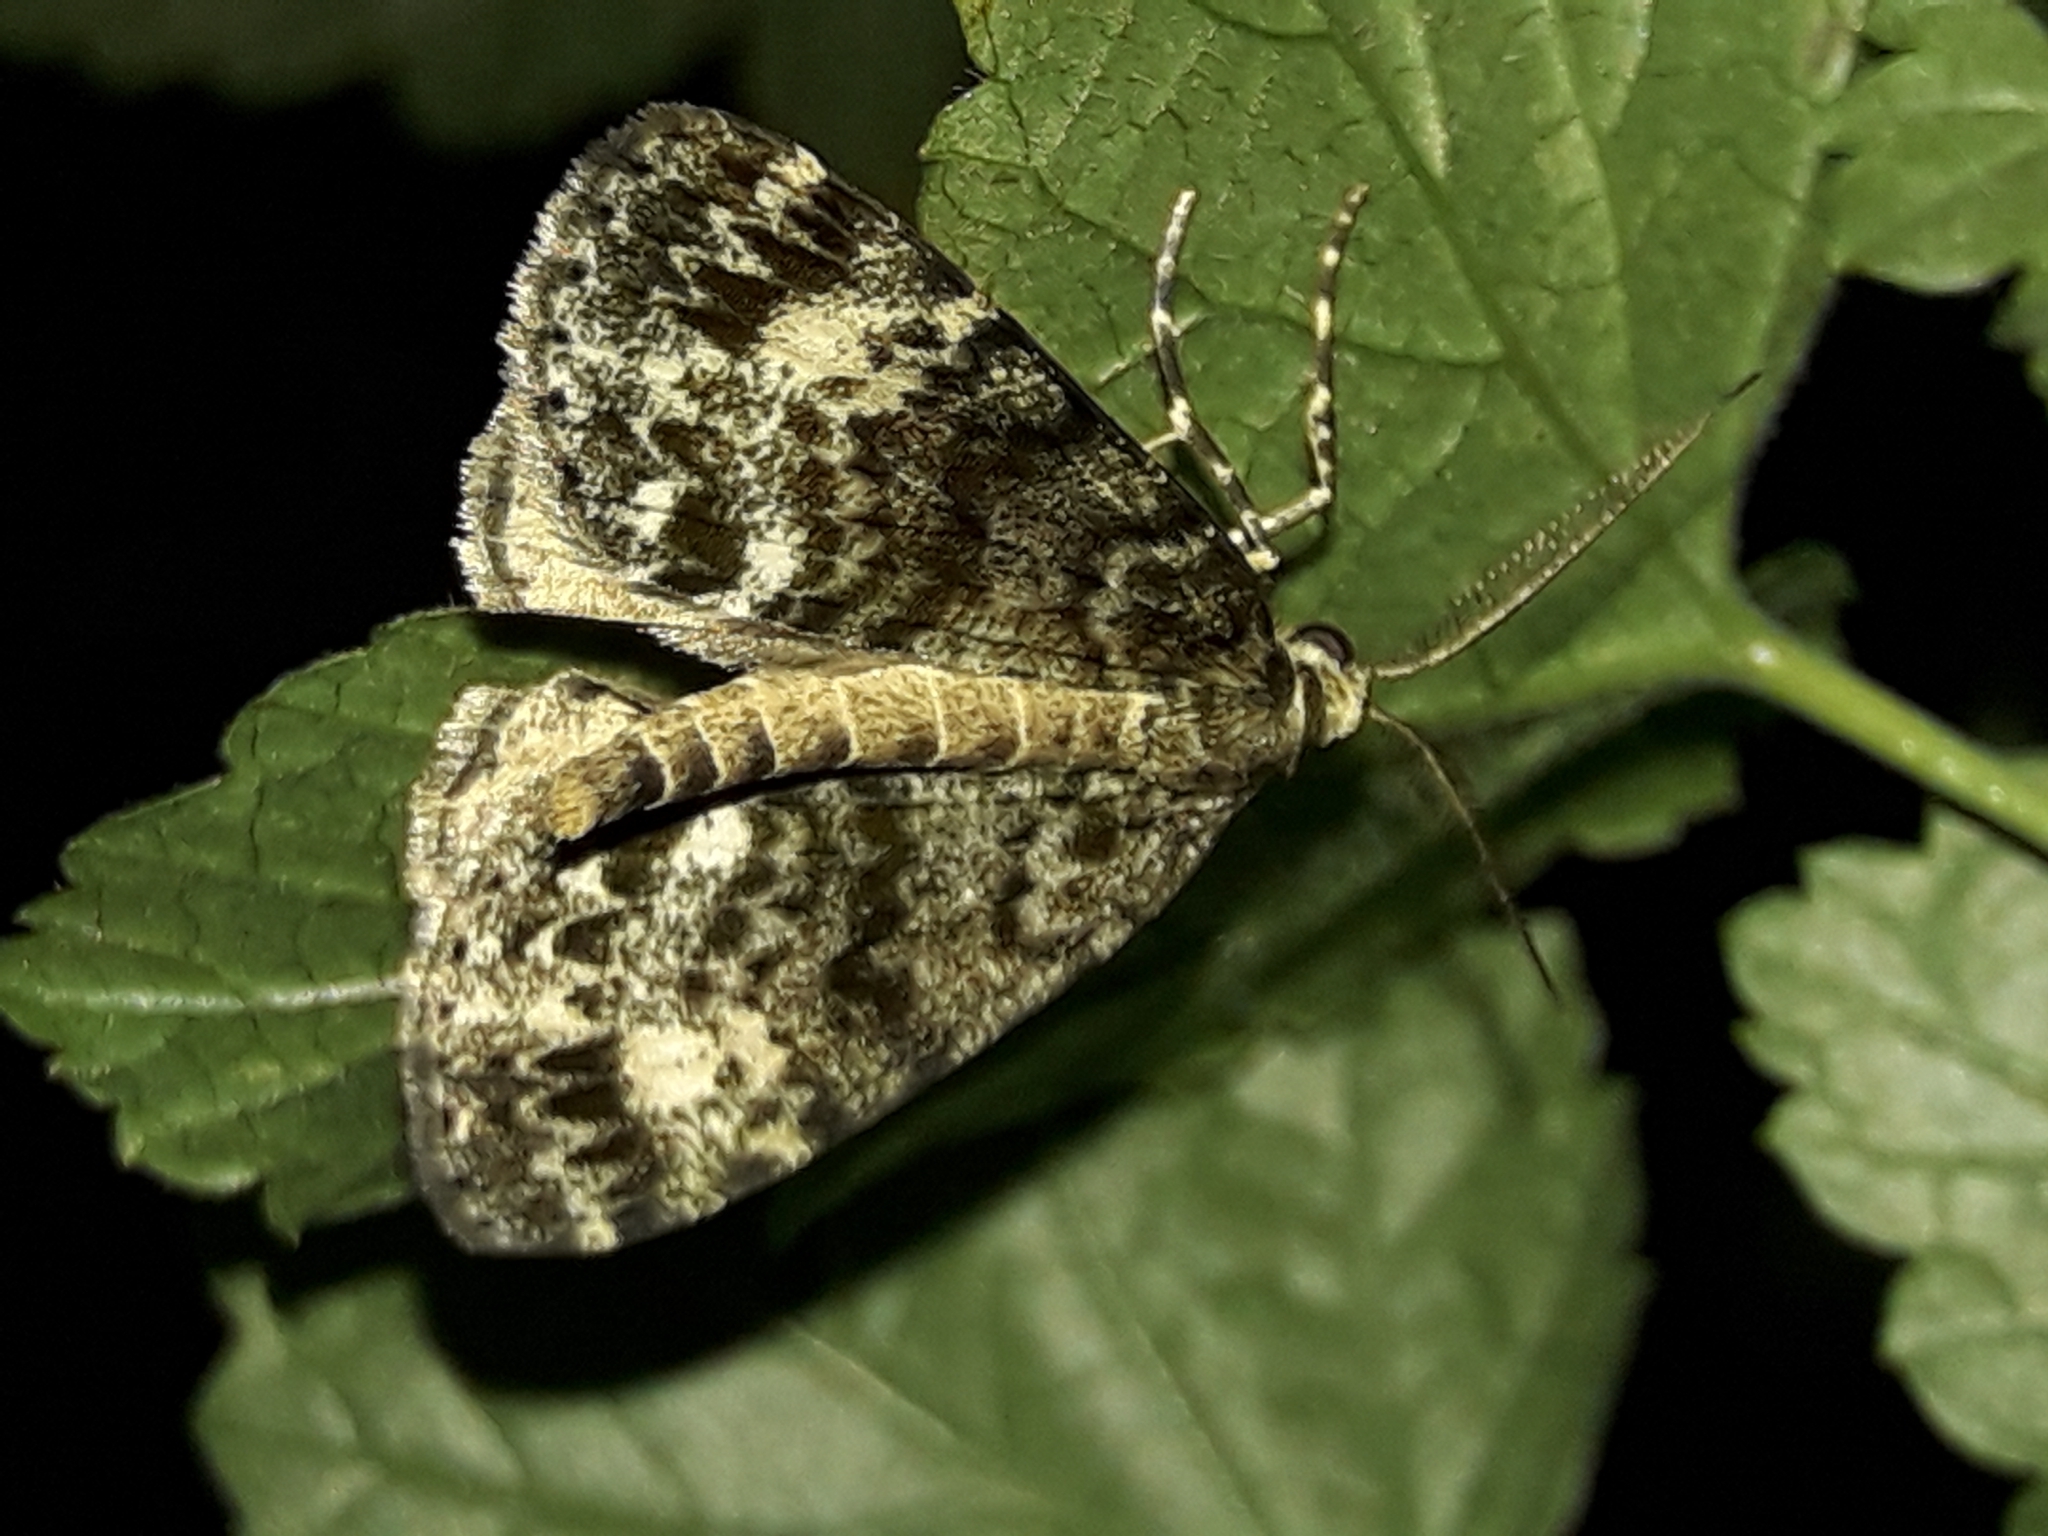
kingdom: Animalia
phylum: Arthropoda
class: Insecta
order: Lepidoptera
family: Geometridae
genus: Pseudocoremia
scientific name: Pseudocoremia indistincta
